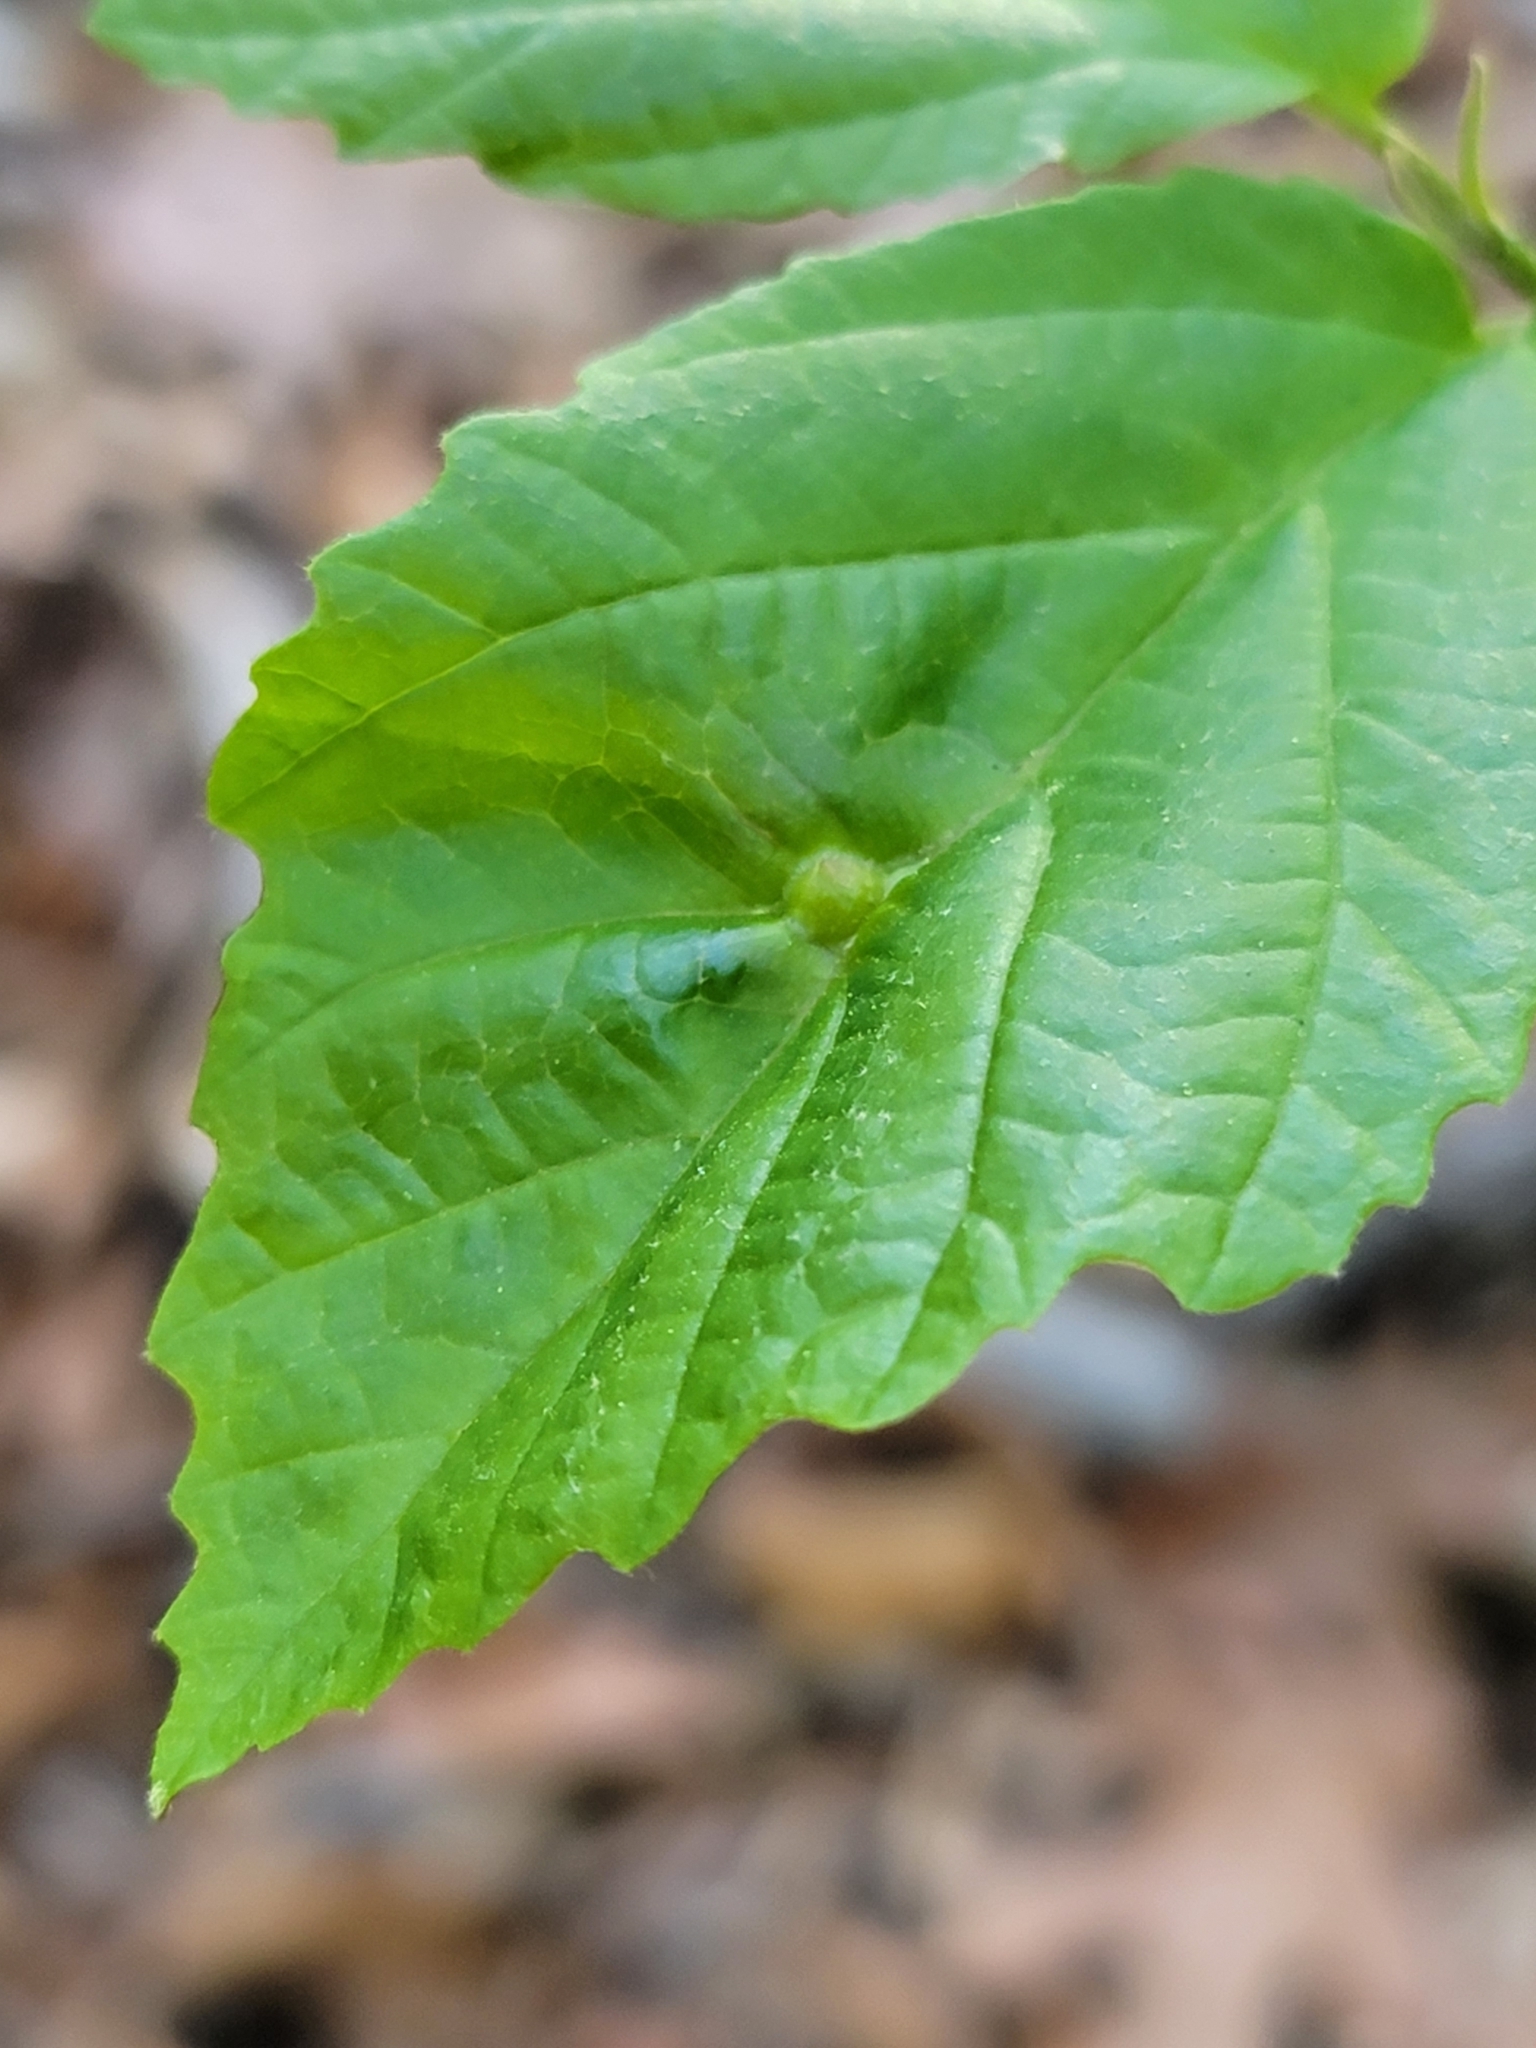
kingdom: Animalia
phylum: Arthropoda
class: Insecta
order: Hemiptera
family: Aphididae
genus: Hormaphis
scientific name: Hormaphis hamamelidis
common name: Witch-hazel cone gall aphid
